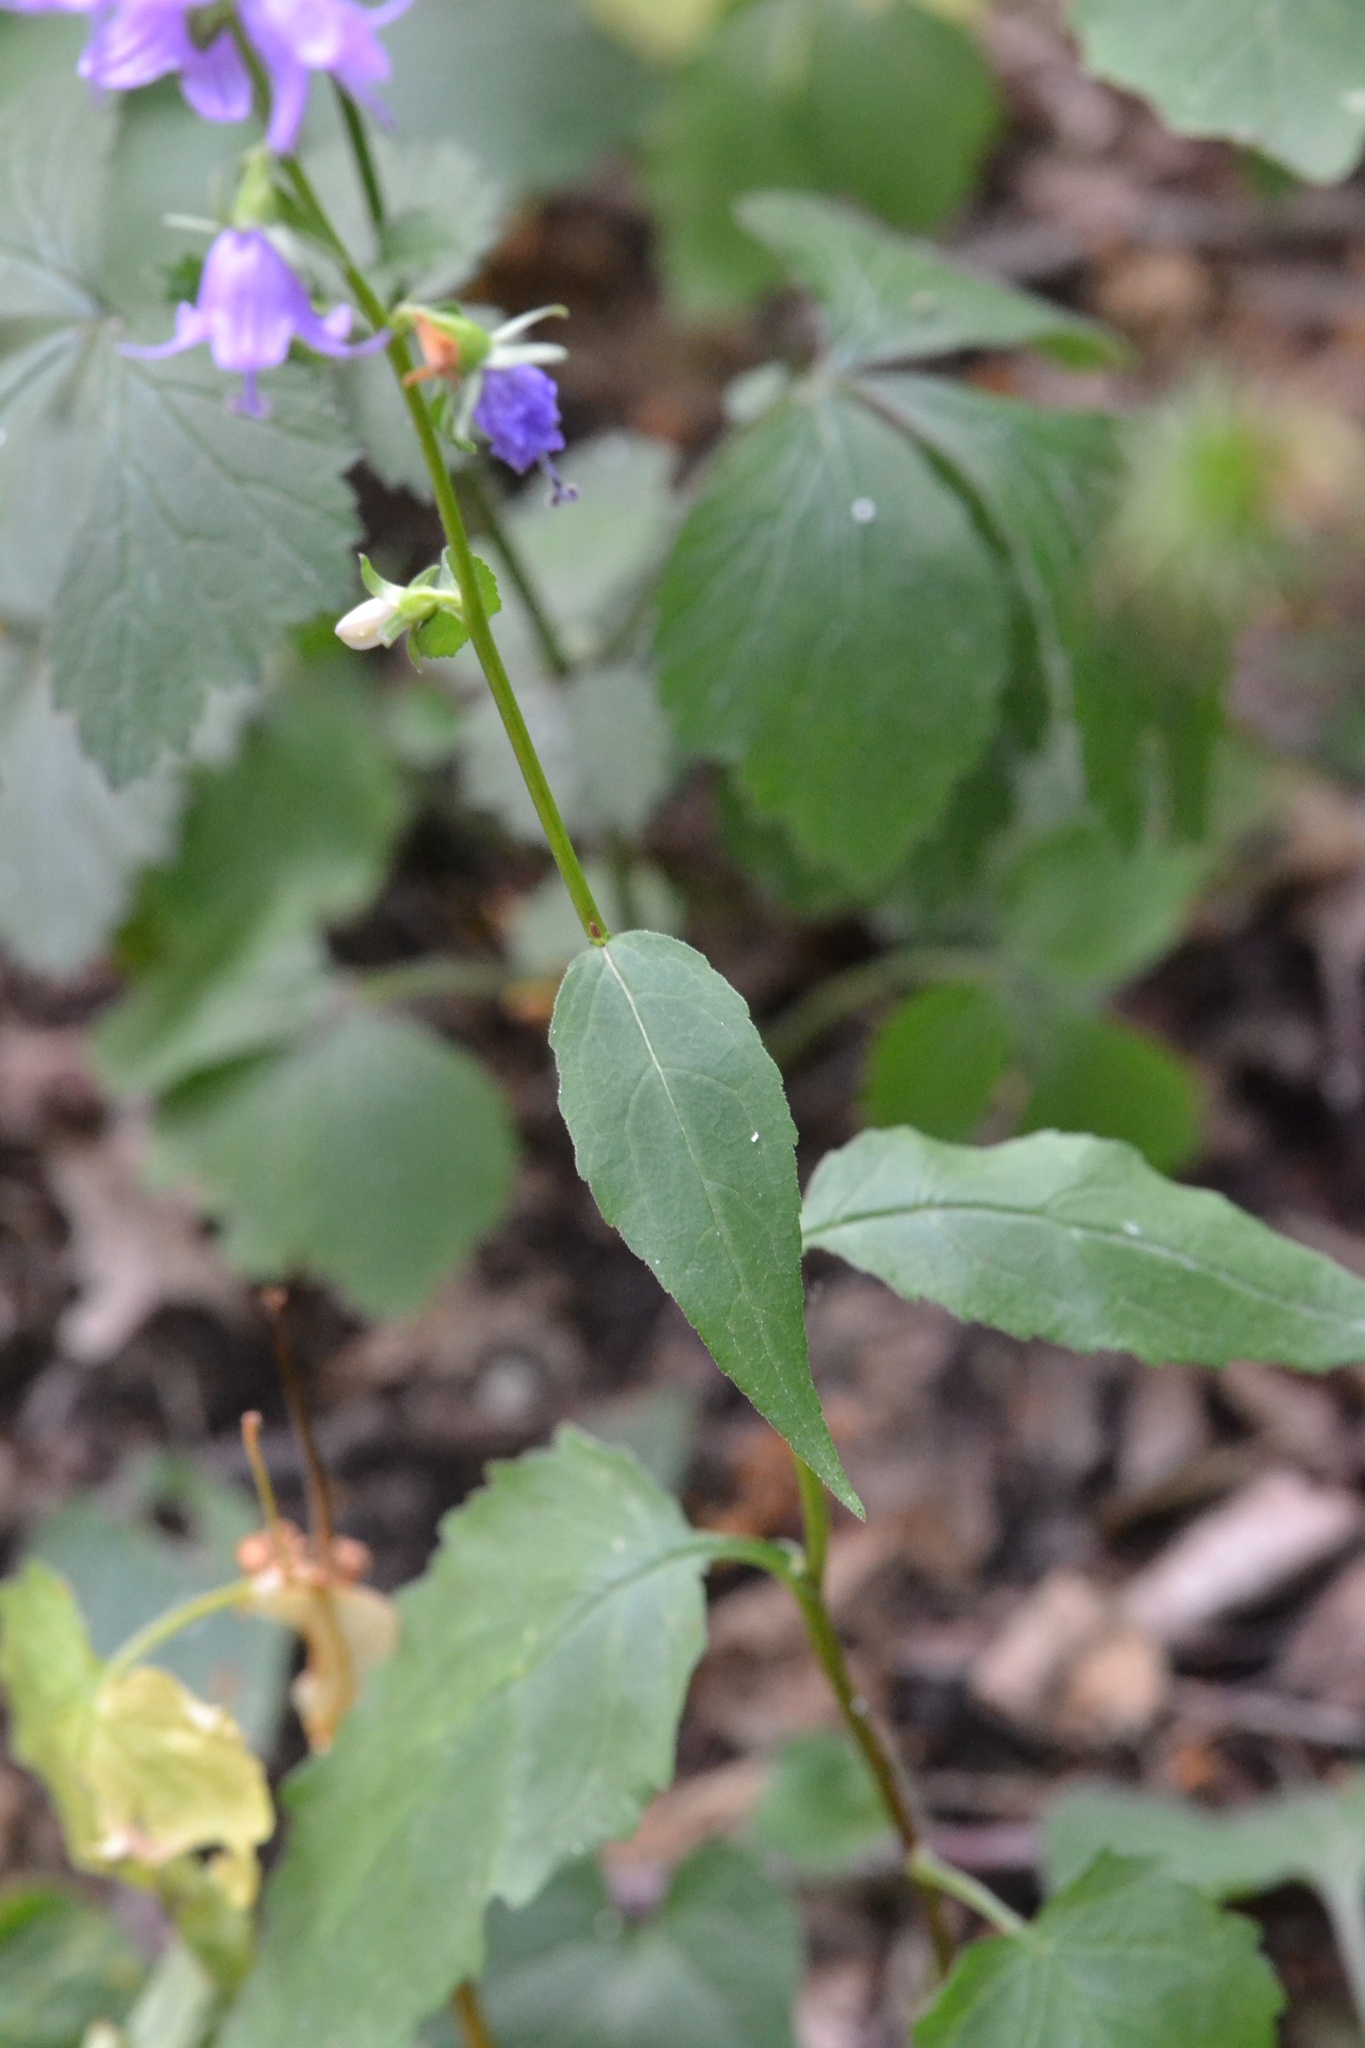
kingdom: Plantae
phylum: Tracheophyta
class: Magnoliopsida
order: Asterales
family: Campanulaceae
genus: Campanula
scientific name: Campanula rapunculoides
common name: Creeping bellflower
